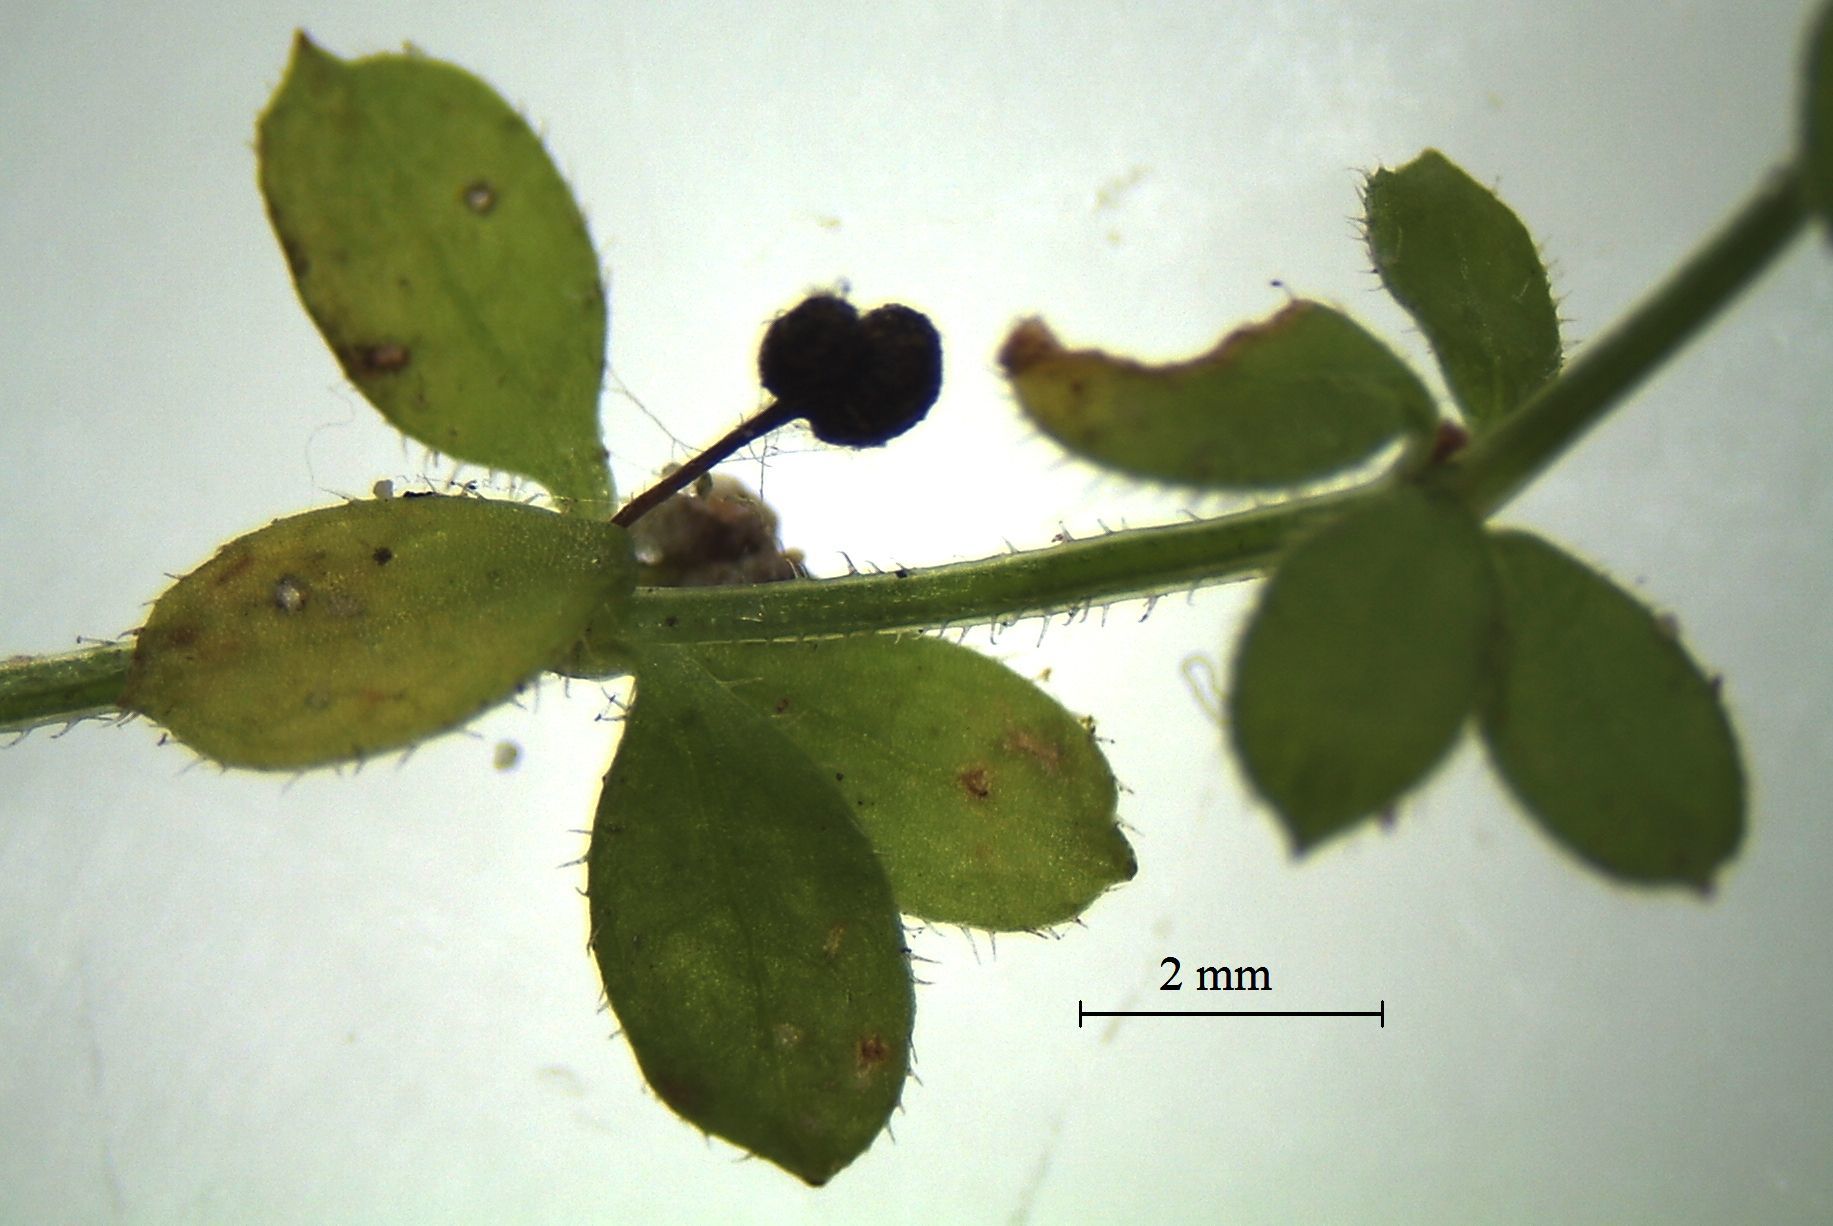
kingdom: Plantae
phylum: Tracheophyta
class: Magnoliopsida
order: Gentianales
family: Rubiaceae
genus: Galium
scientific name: Galium propinquum
